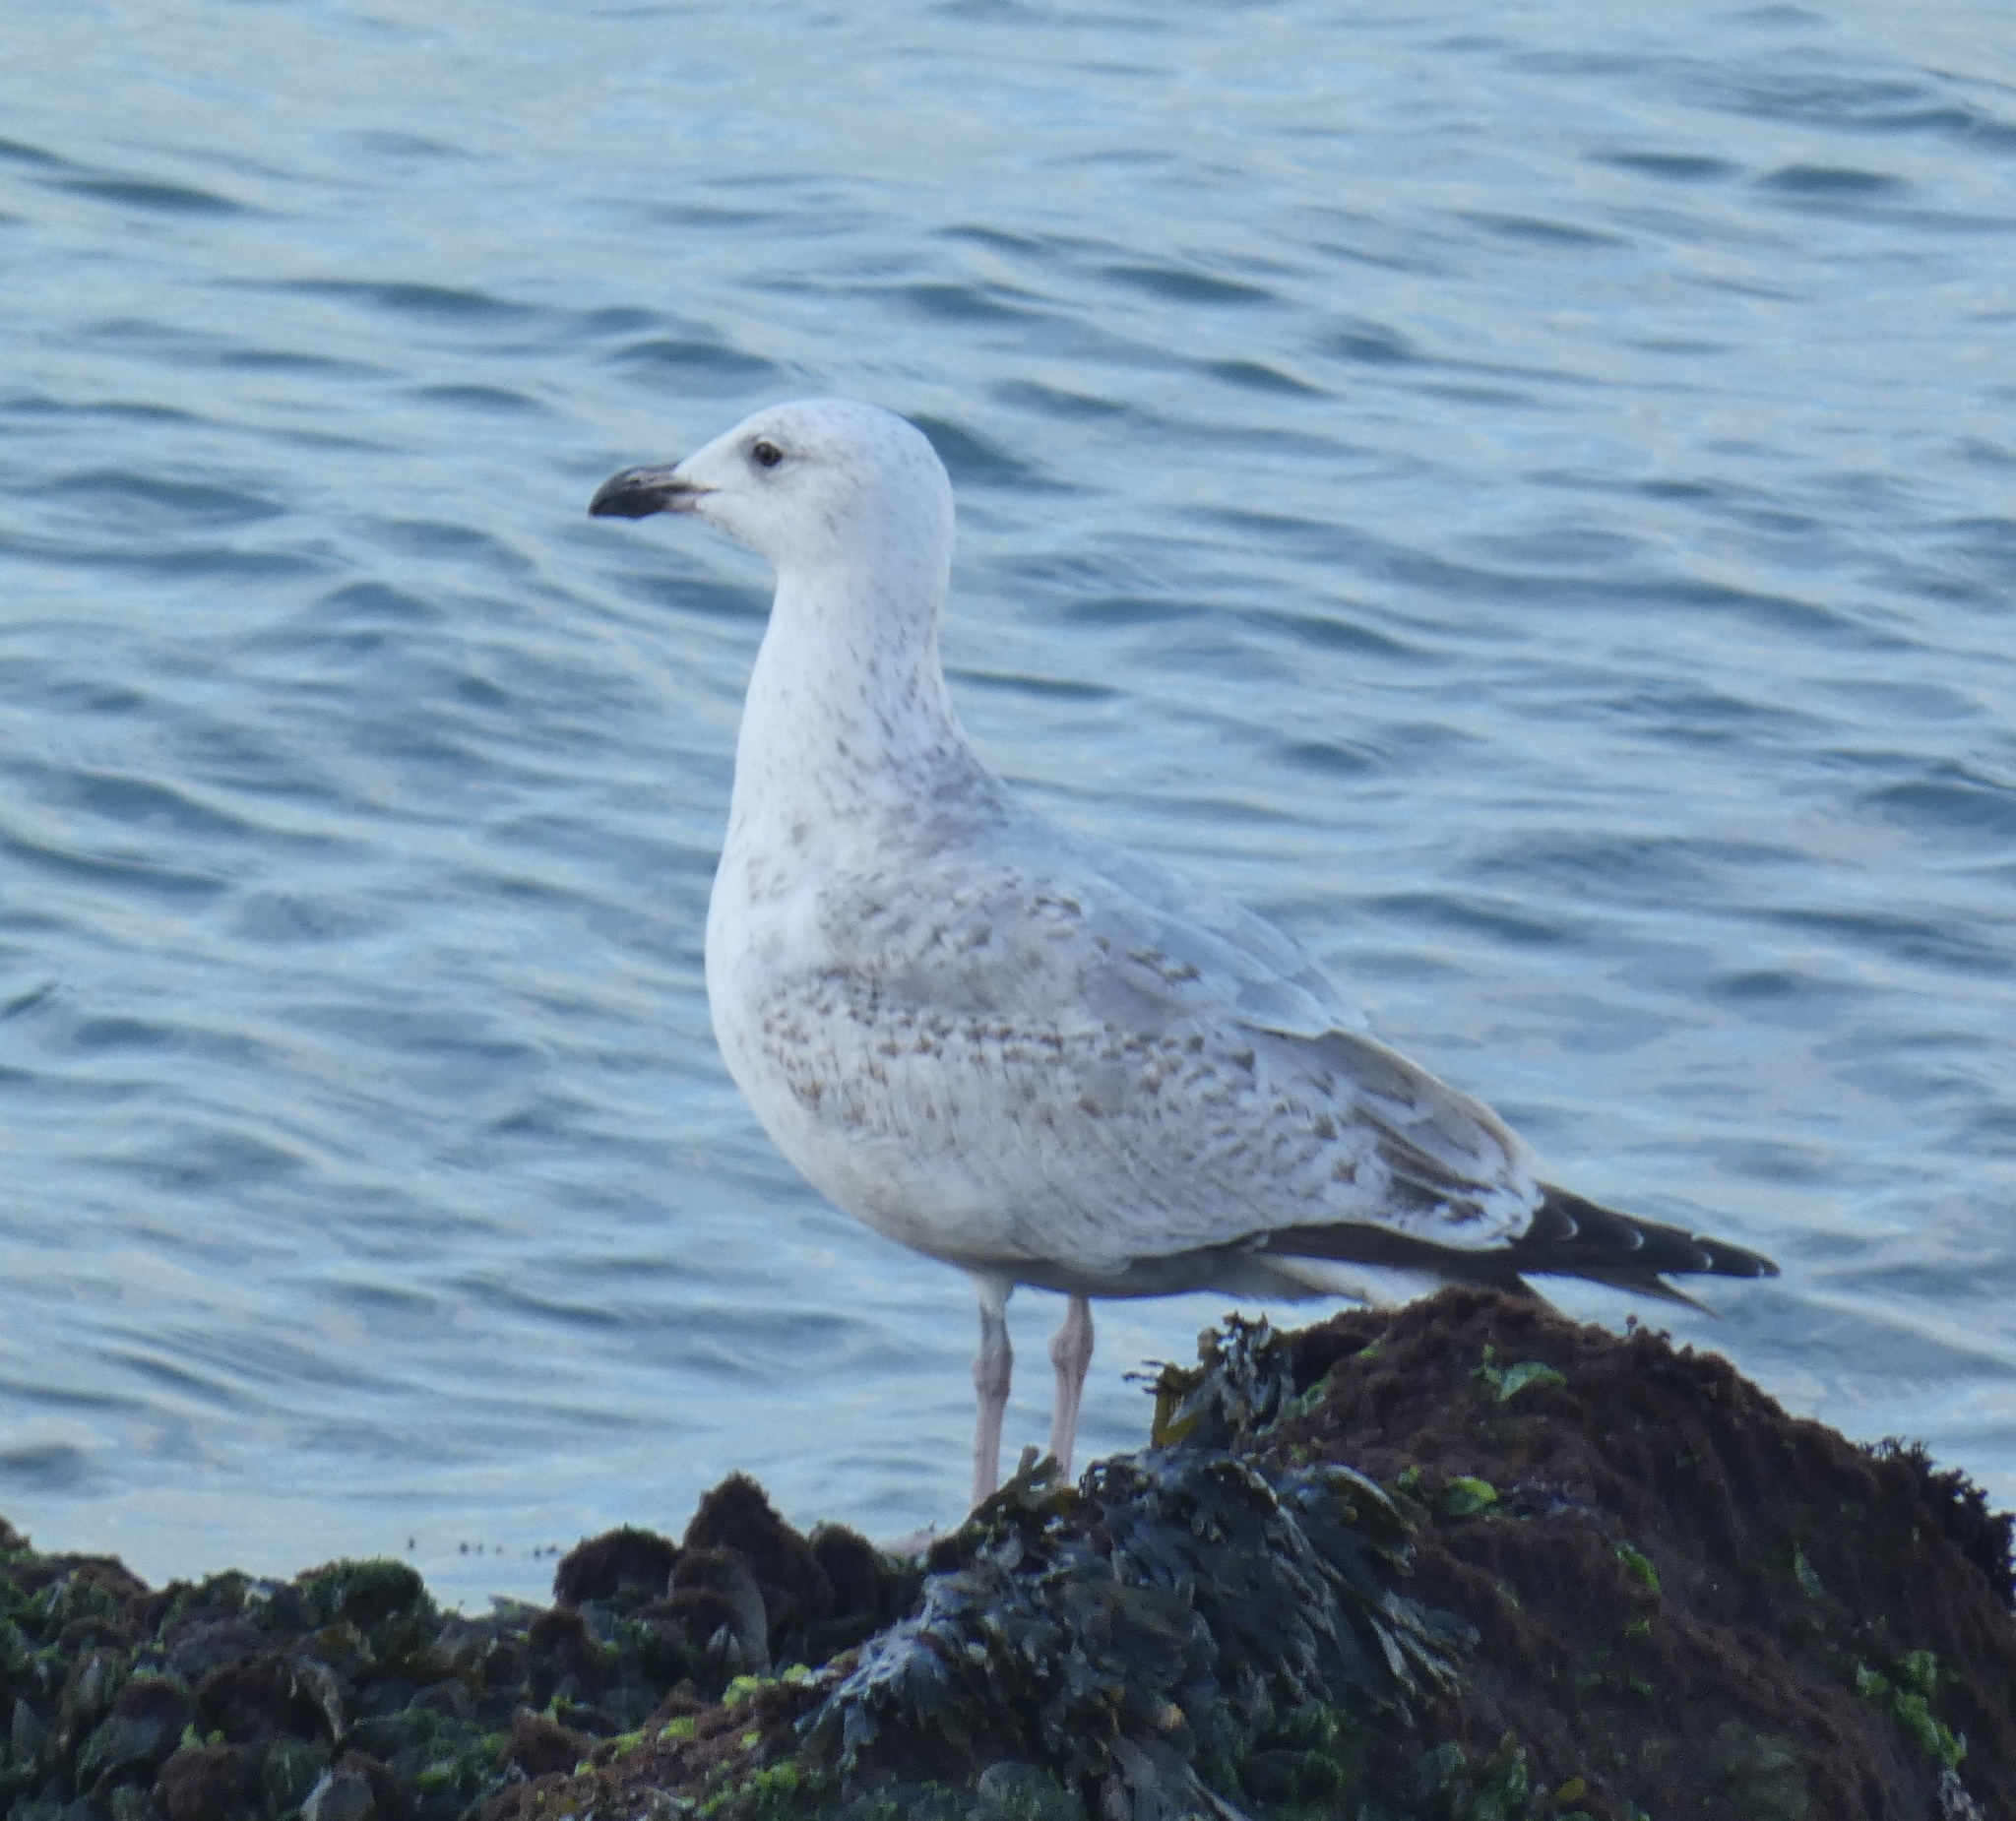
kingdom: Animalia
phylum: Chordata
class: Aves
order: Charadriiformes
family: Laridae
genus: Larus
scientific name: Larus argentatus
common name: Herring gull
